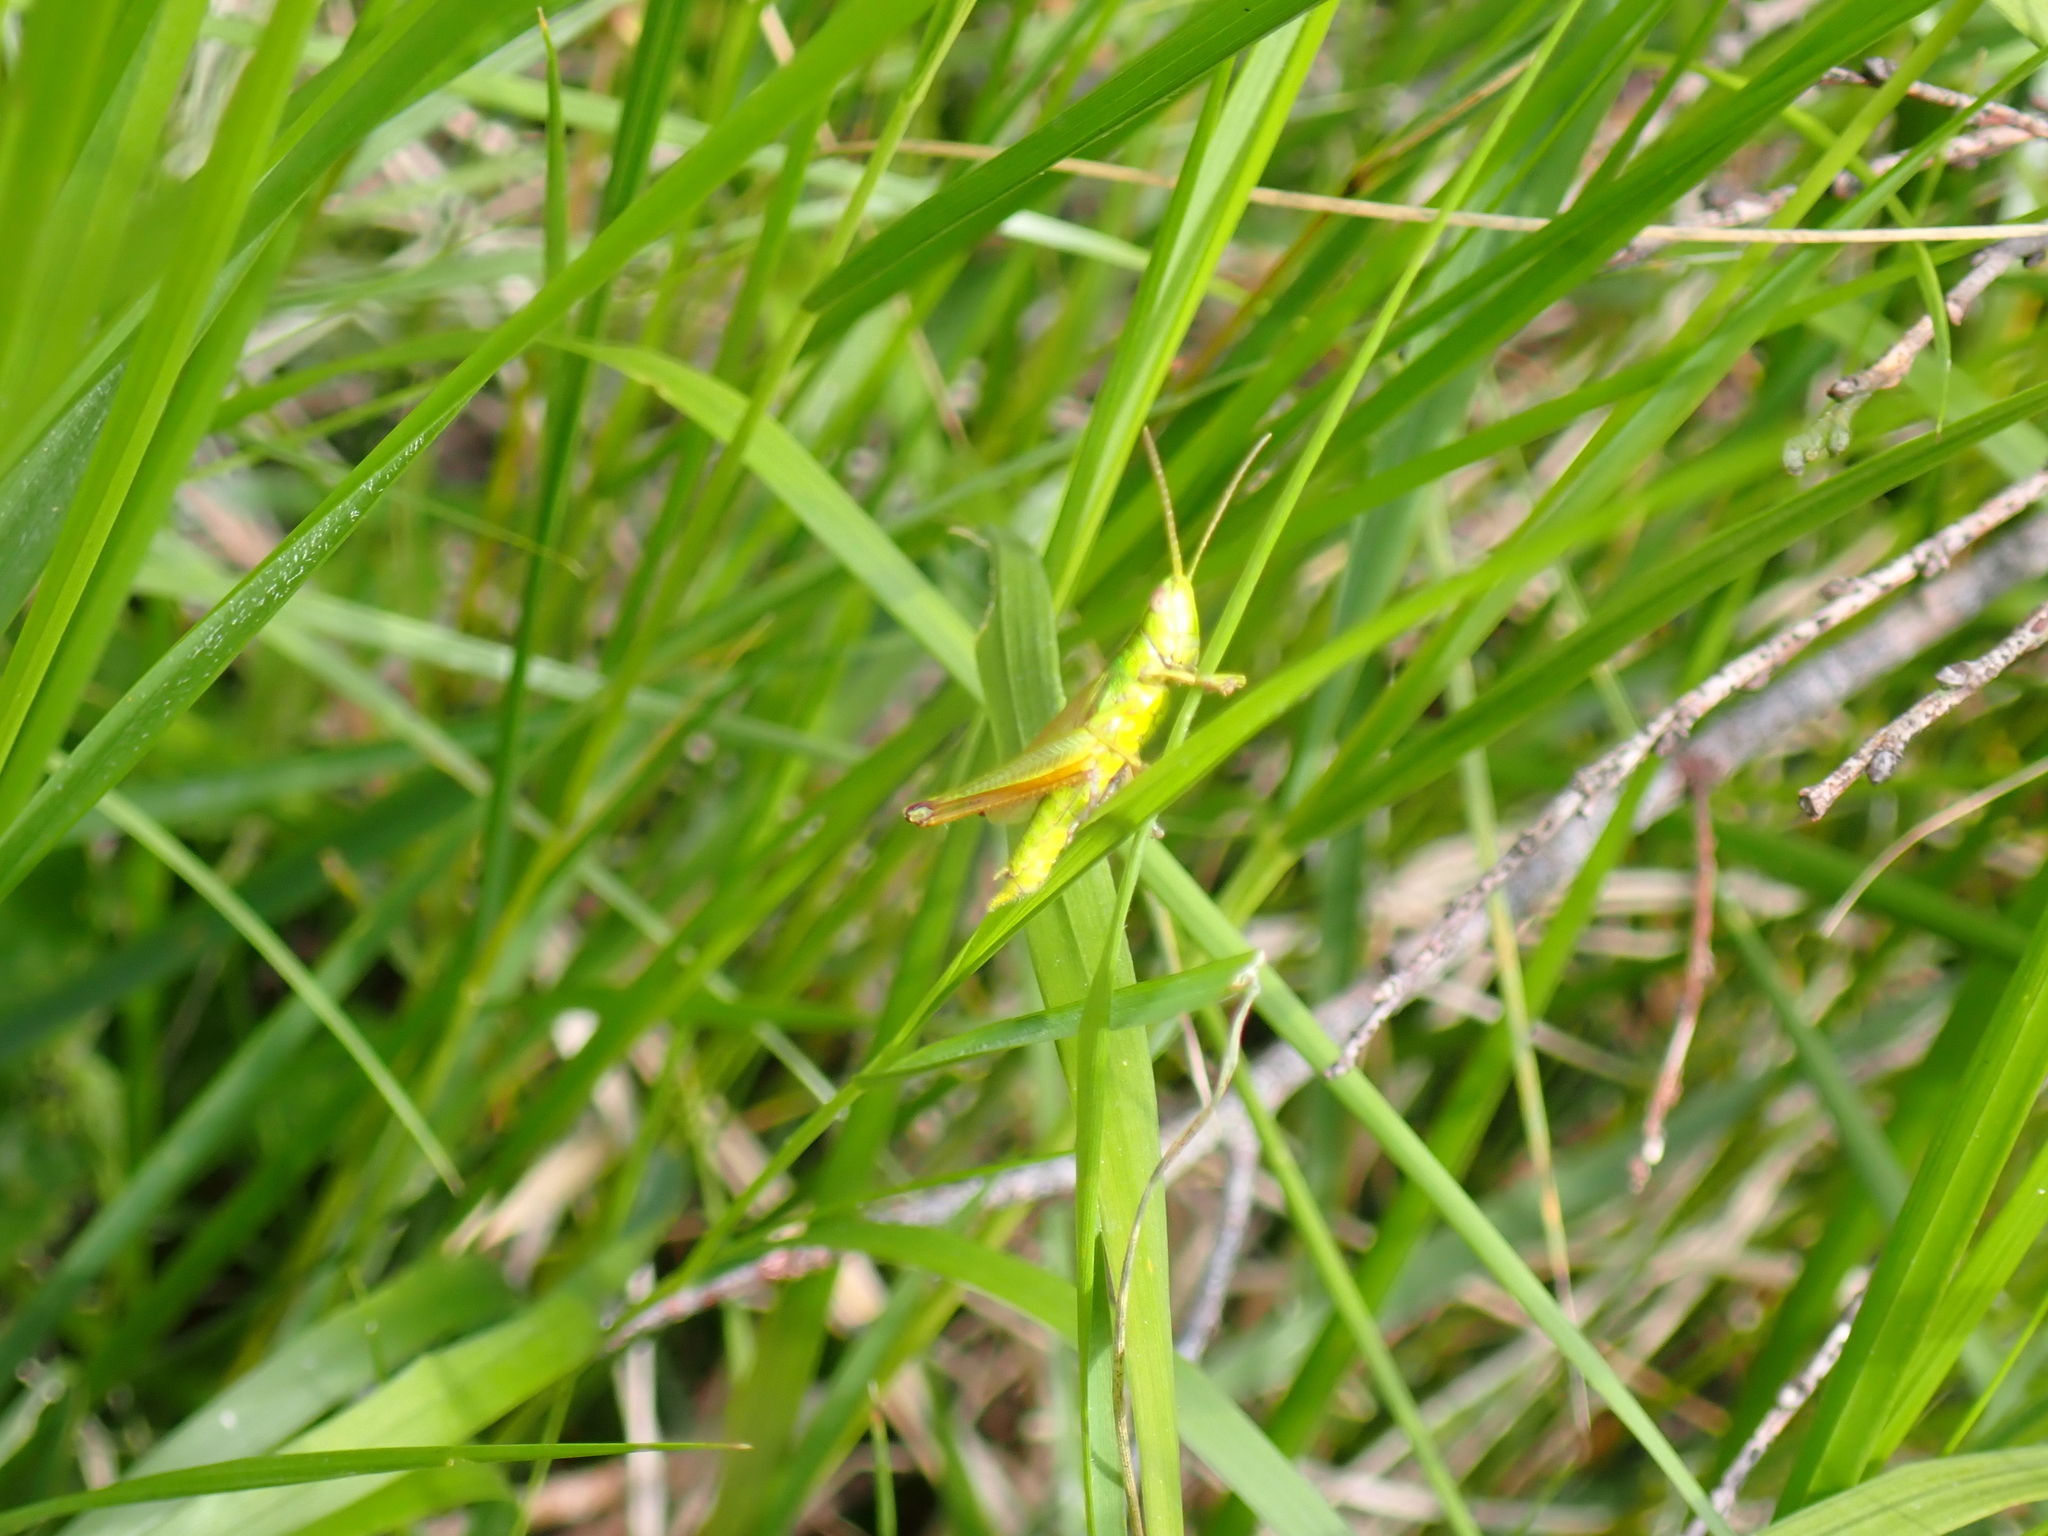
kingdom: Animalia
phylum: Arthropoda
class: Insecta
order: Orthoptera
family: Acrididae
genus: Chrysochraon
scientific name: Chrysochraon dispar
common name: Large gold grasshopper
